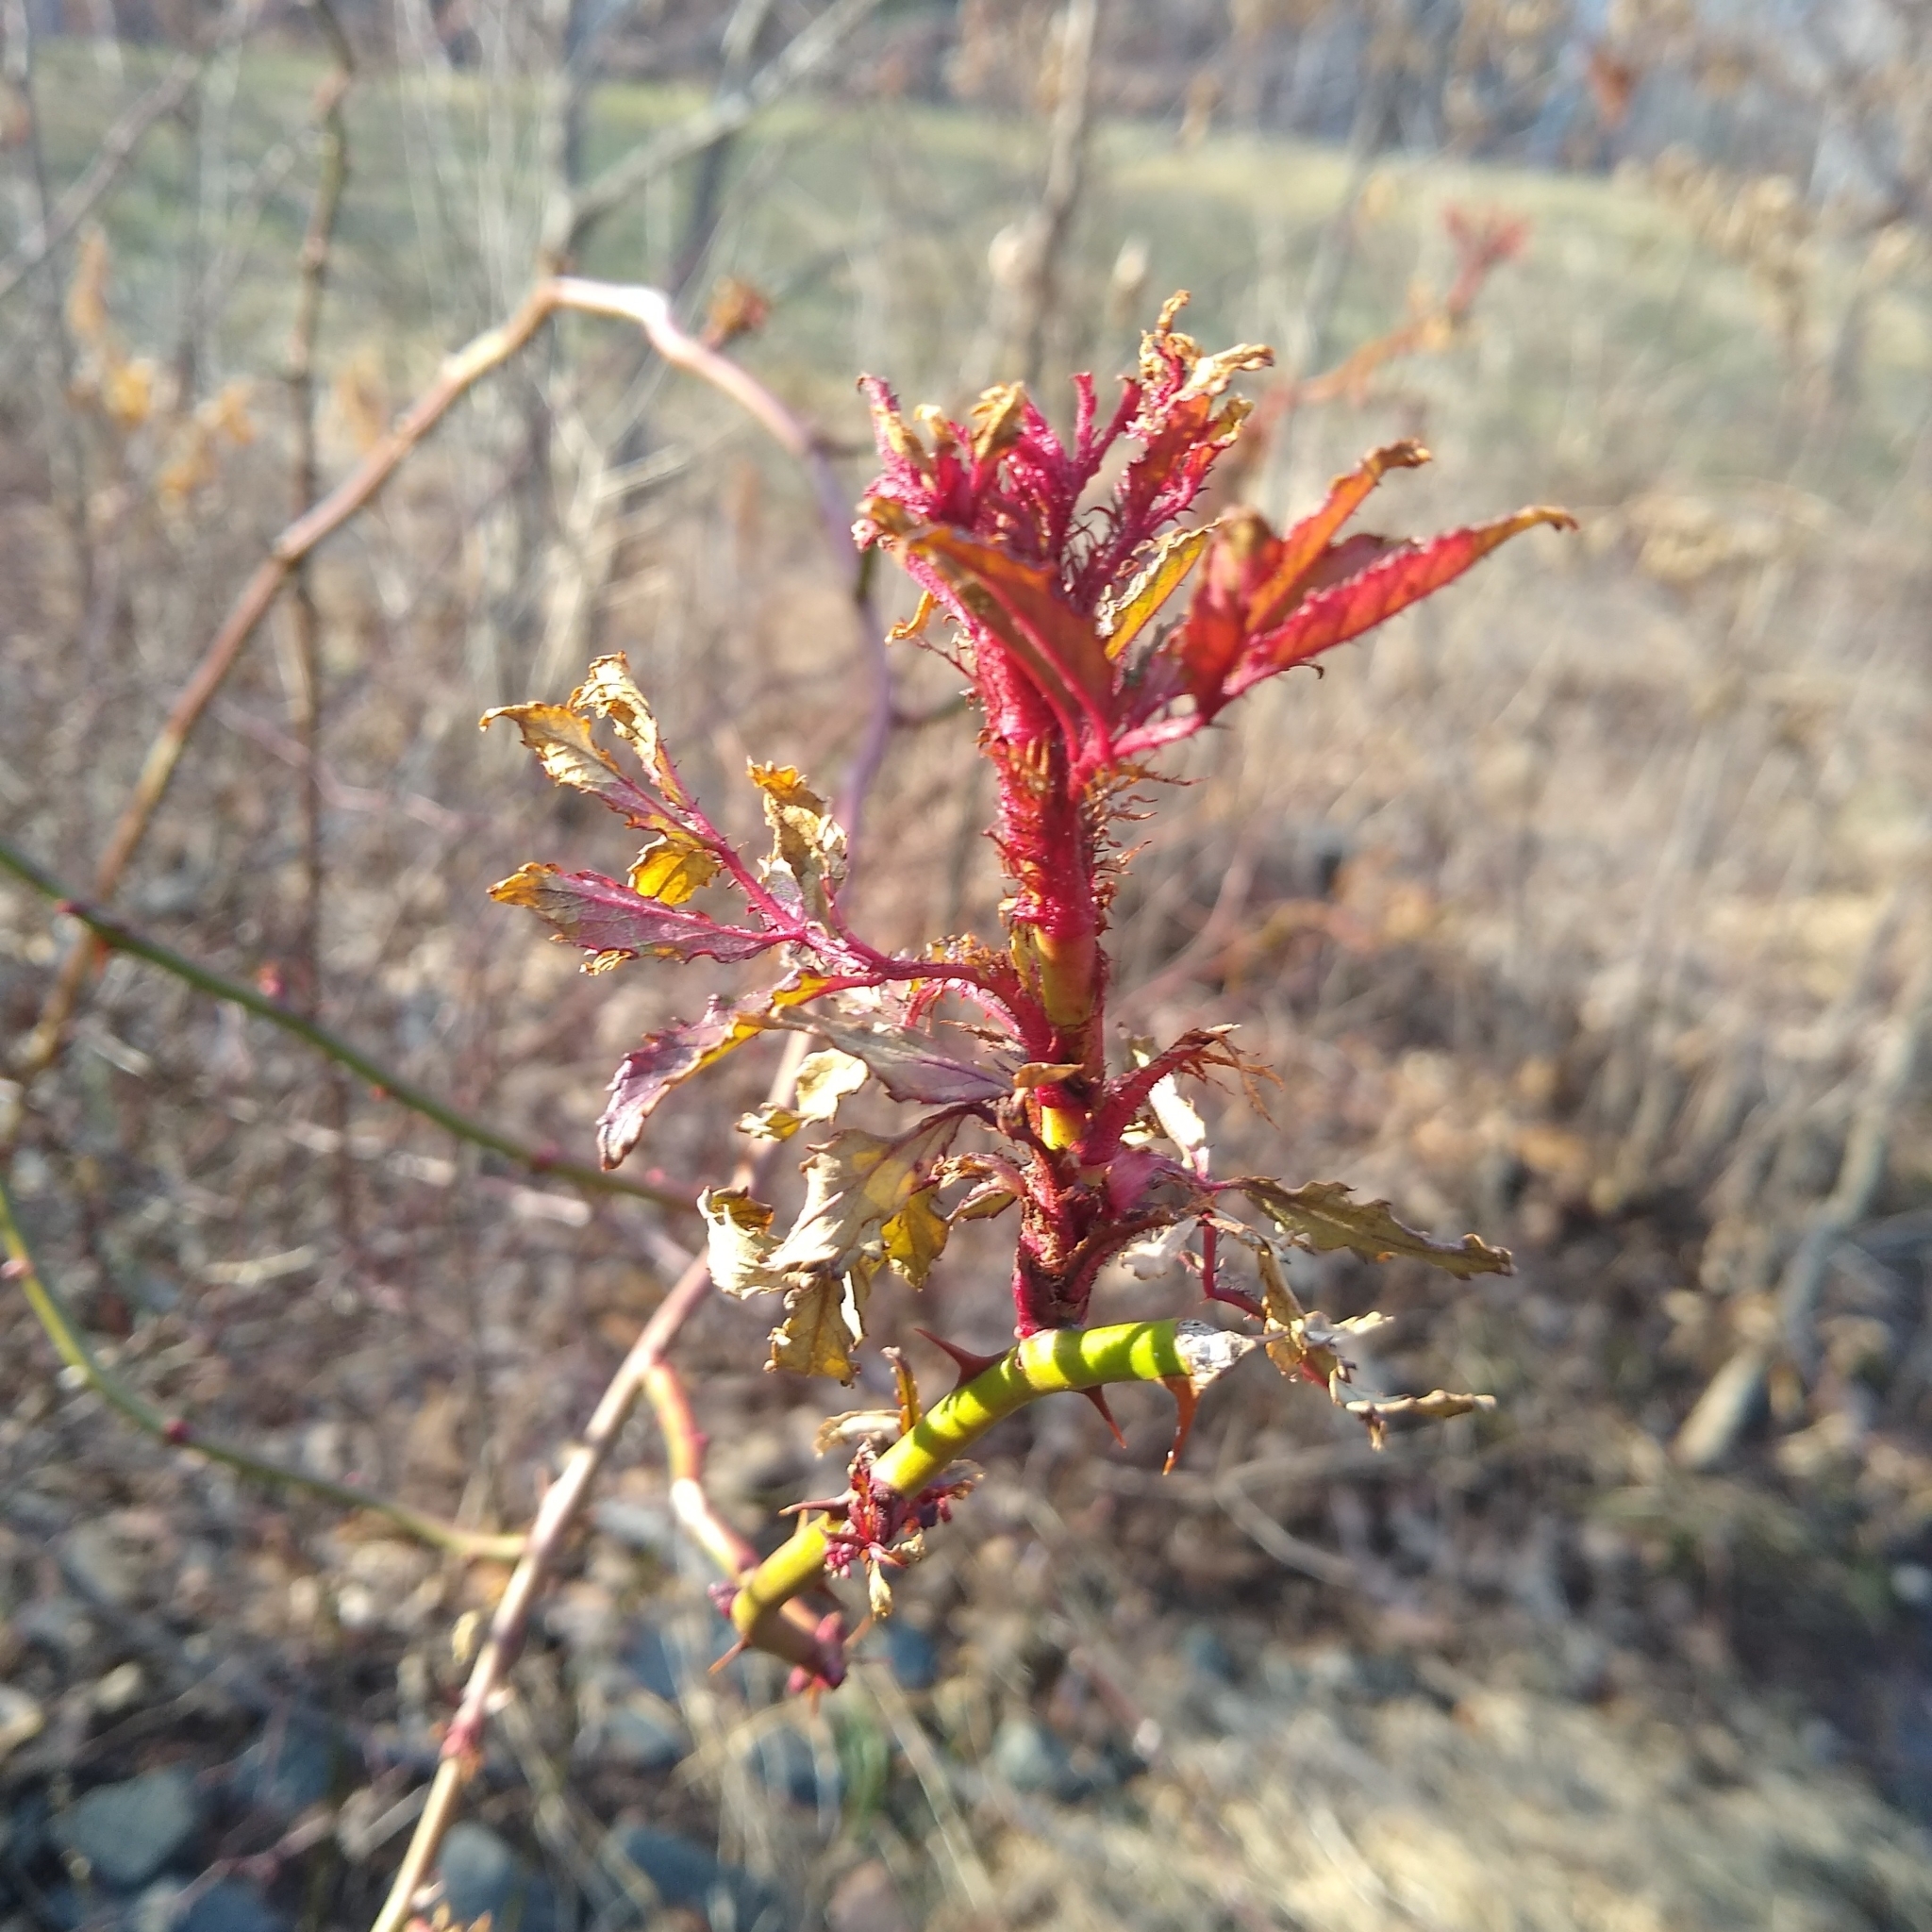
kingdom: Viruses
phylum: Negarnaviricota
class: Ellioviricetes
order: Bunyavirales
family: Fimoviridae
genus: Emaravirus
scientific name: Emaravirus rosae
